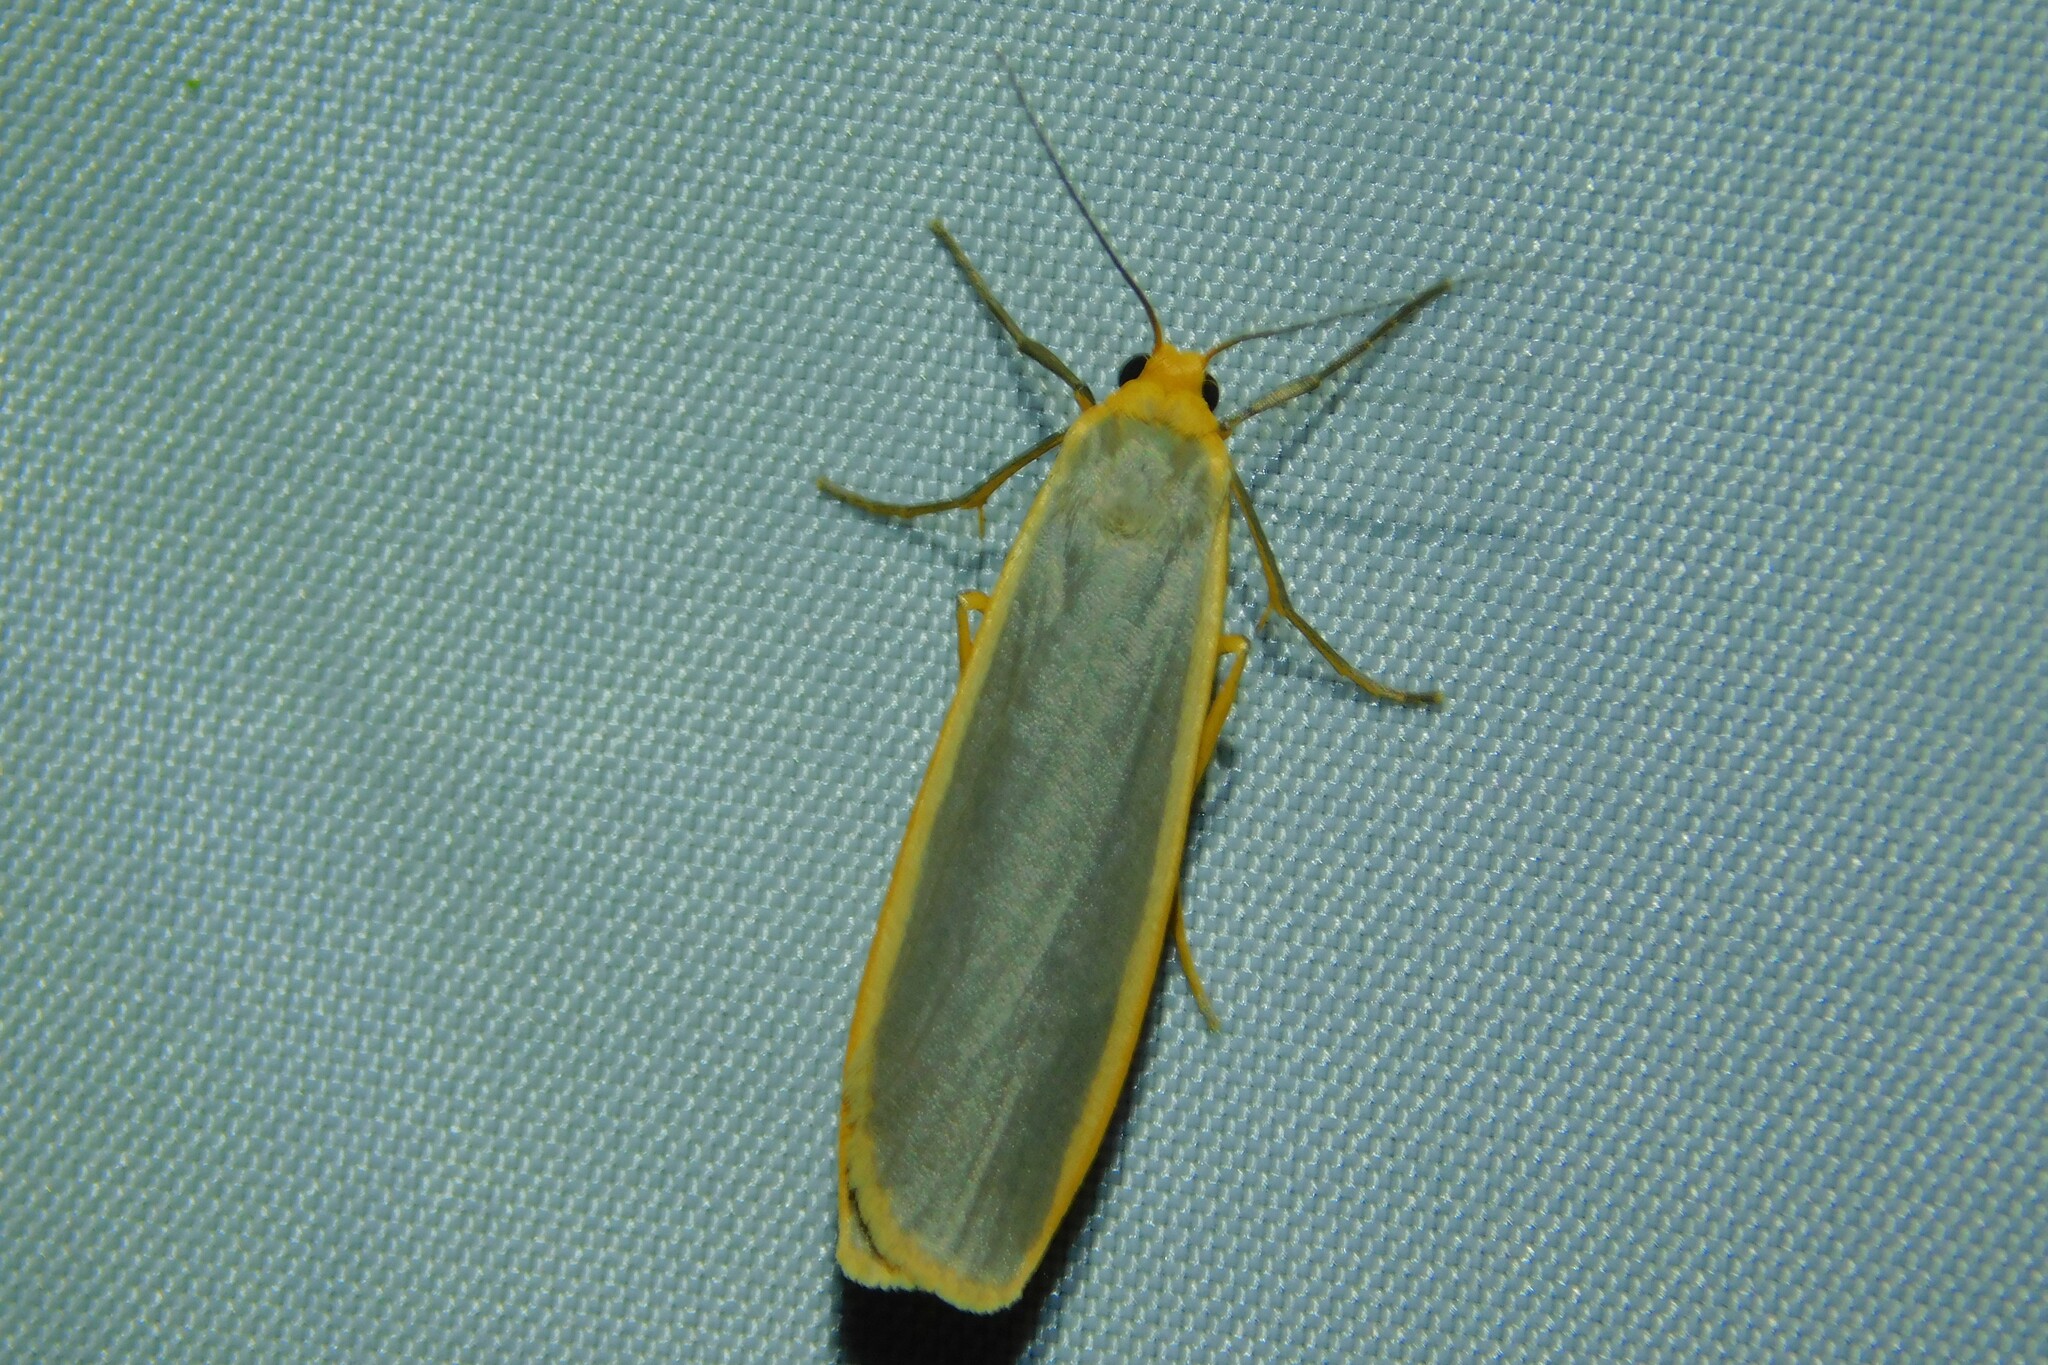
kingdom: Animalia
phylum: Arthropoda
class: Insecta
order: Lepidoptera
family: Erebidae
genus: Nyea
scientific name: Nyea lurideola
